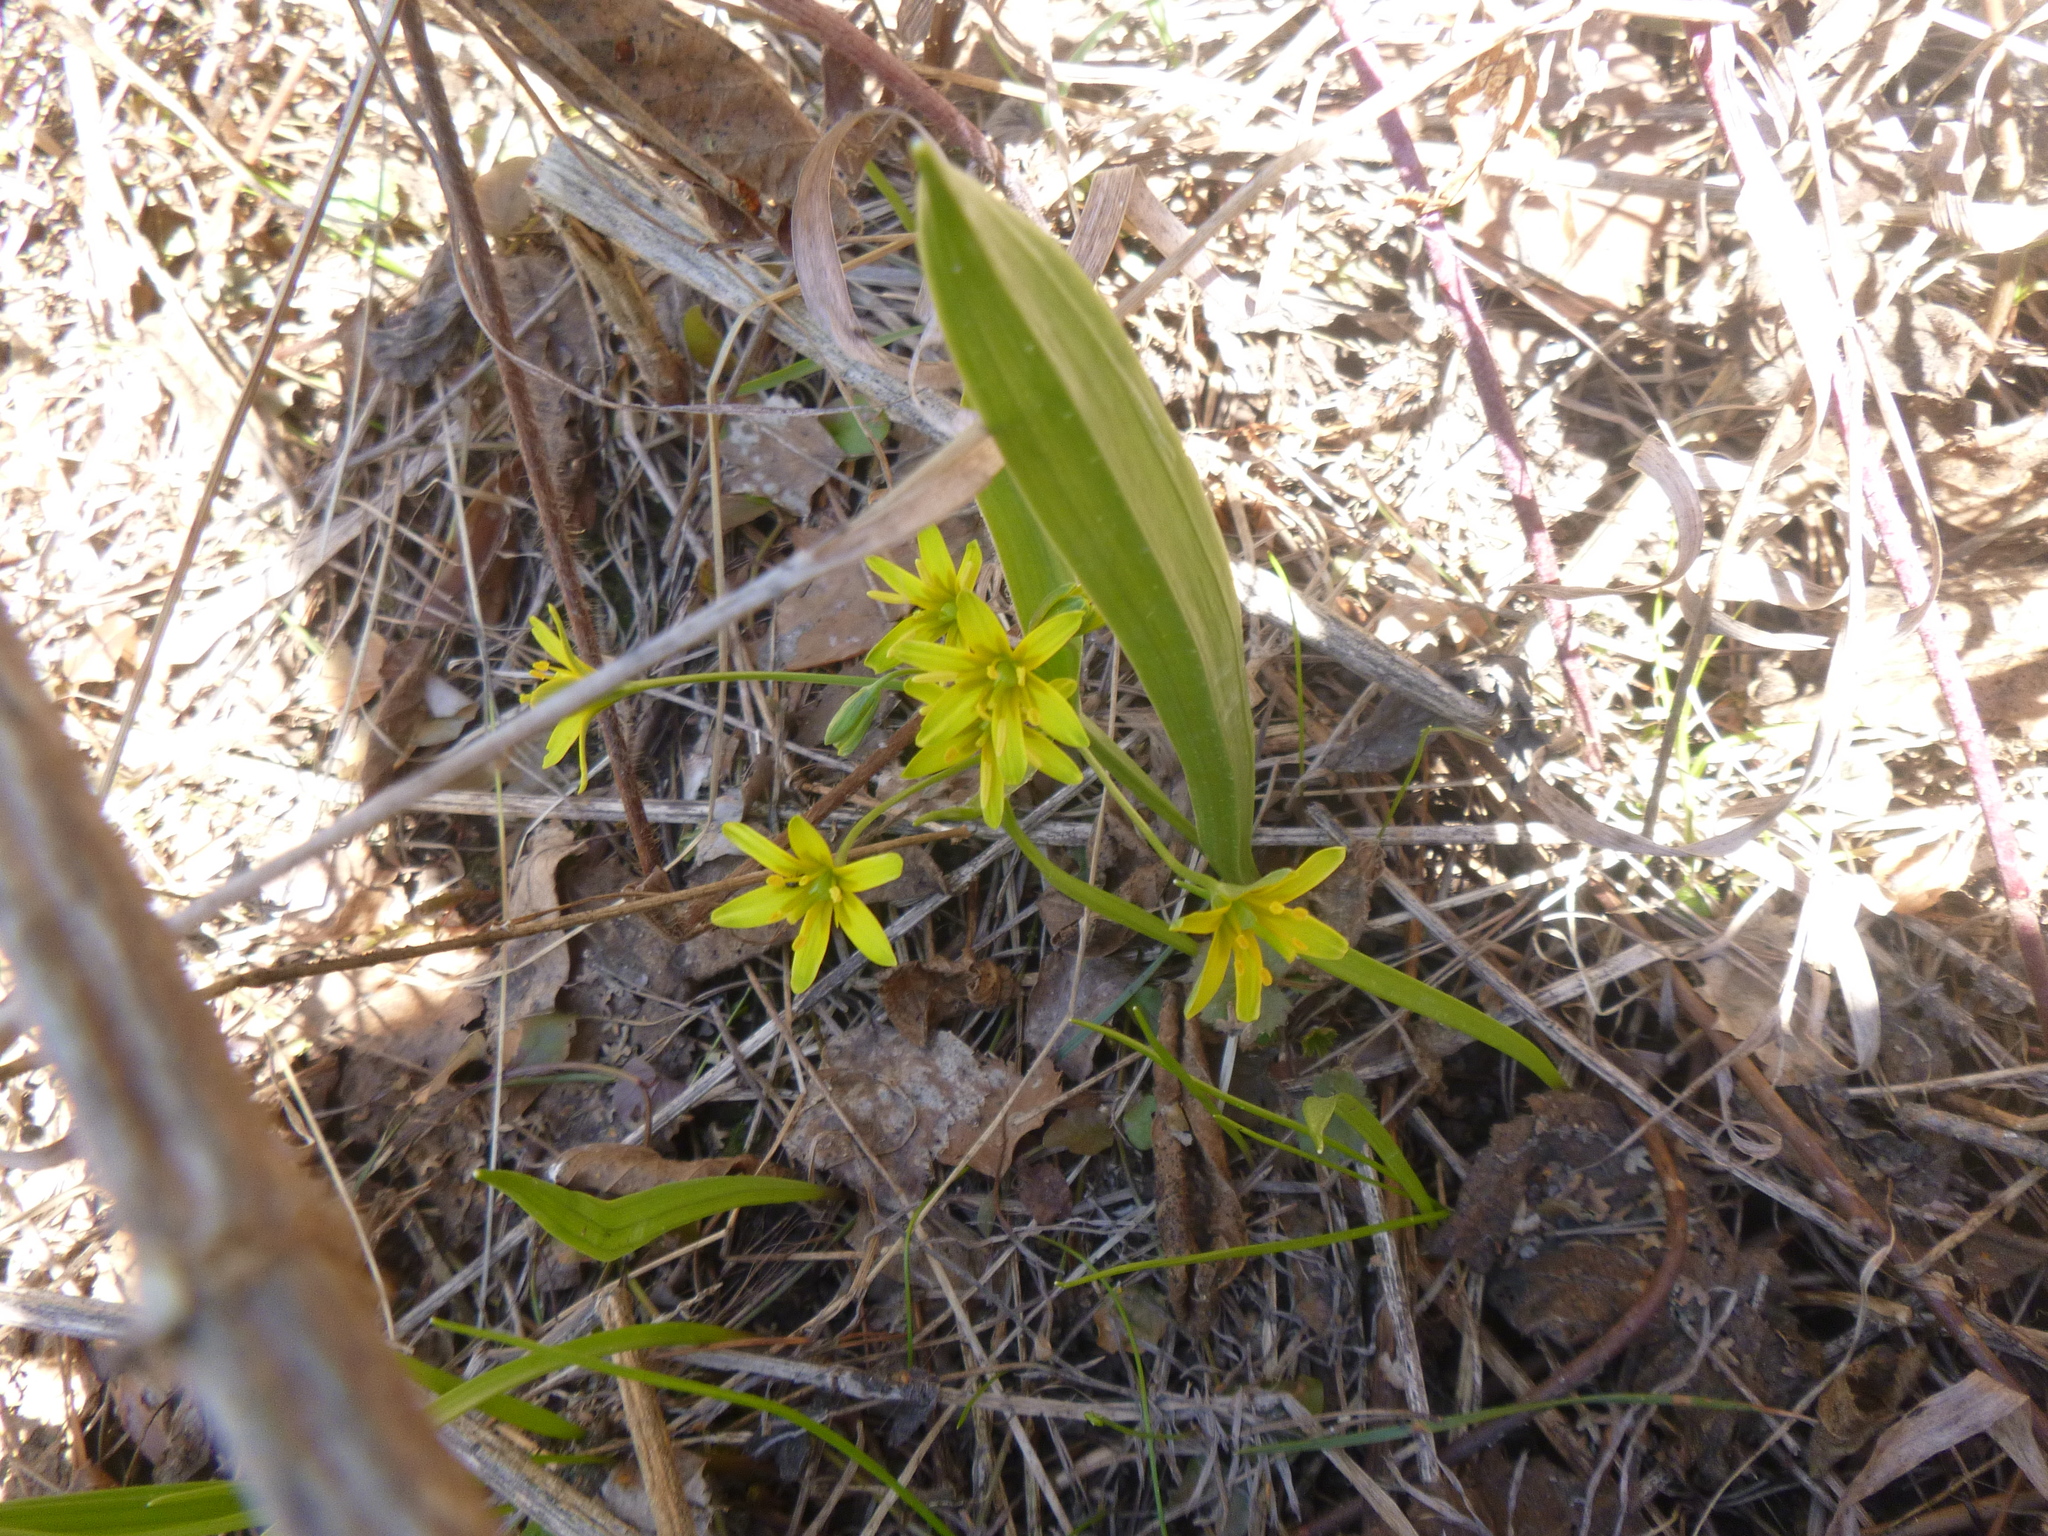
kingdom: Plantae
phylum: Tracheophyta
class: Liliopsida
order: Liliales
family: Liliaceae
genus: Gagea
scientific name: Gagea lutea
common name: Yellow star-of-bethlehem
